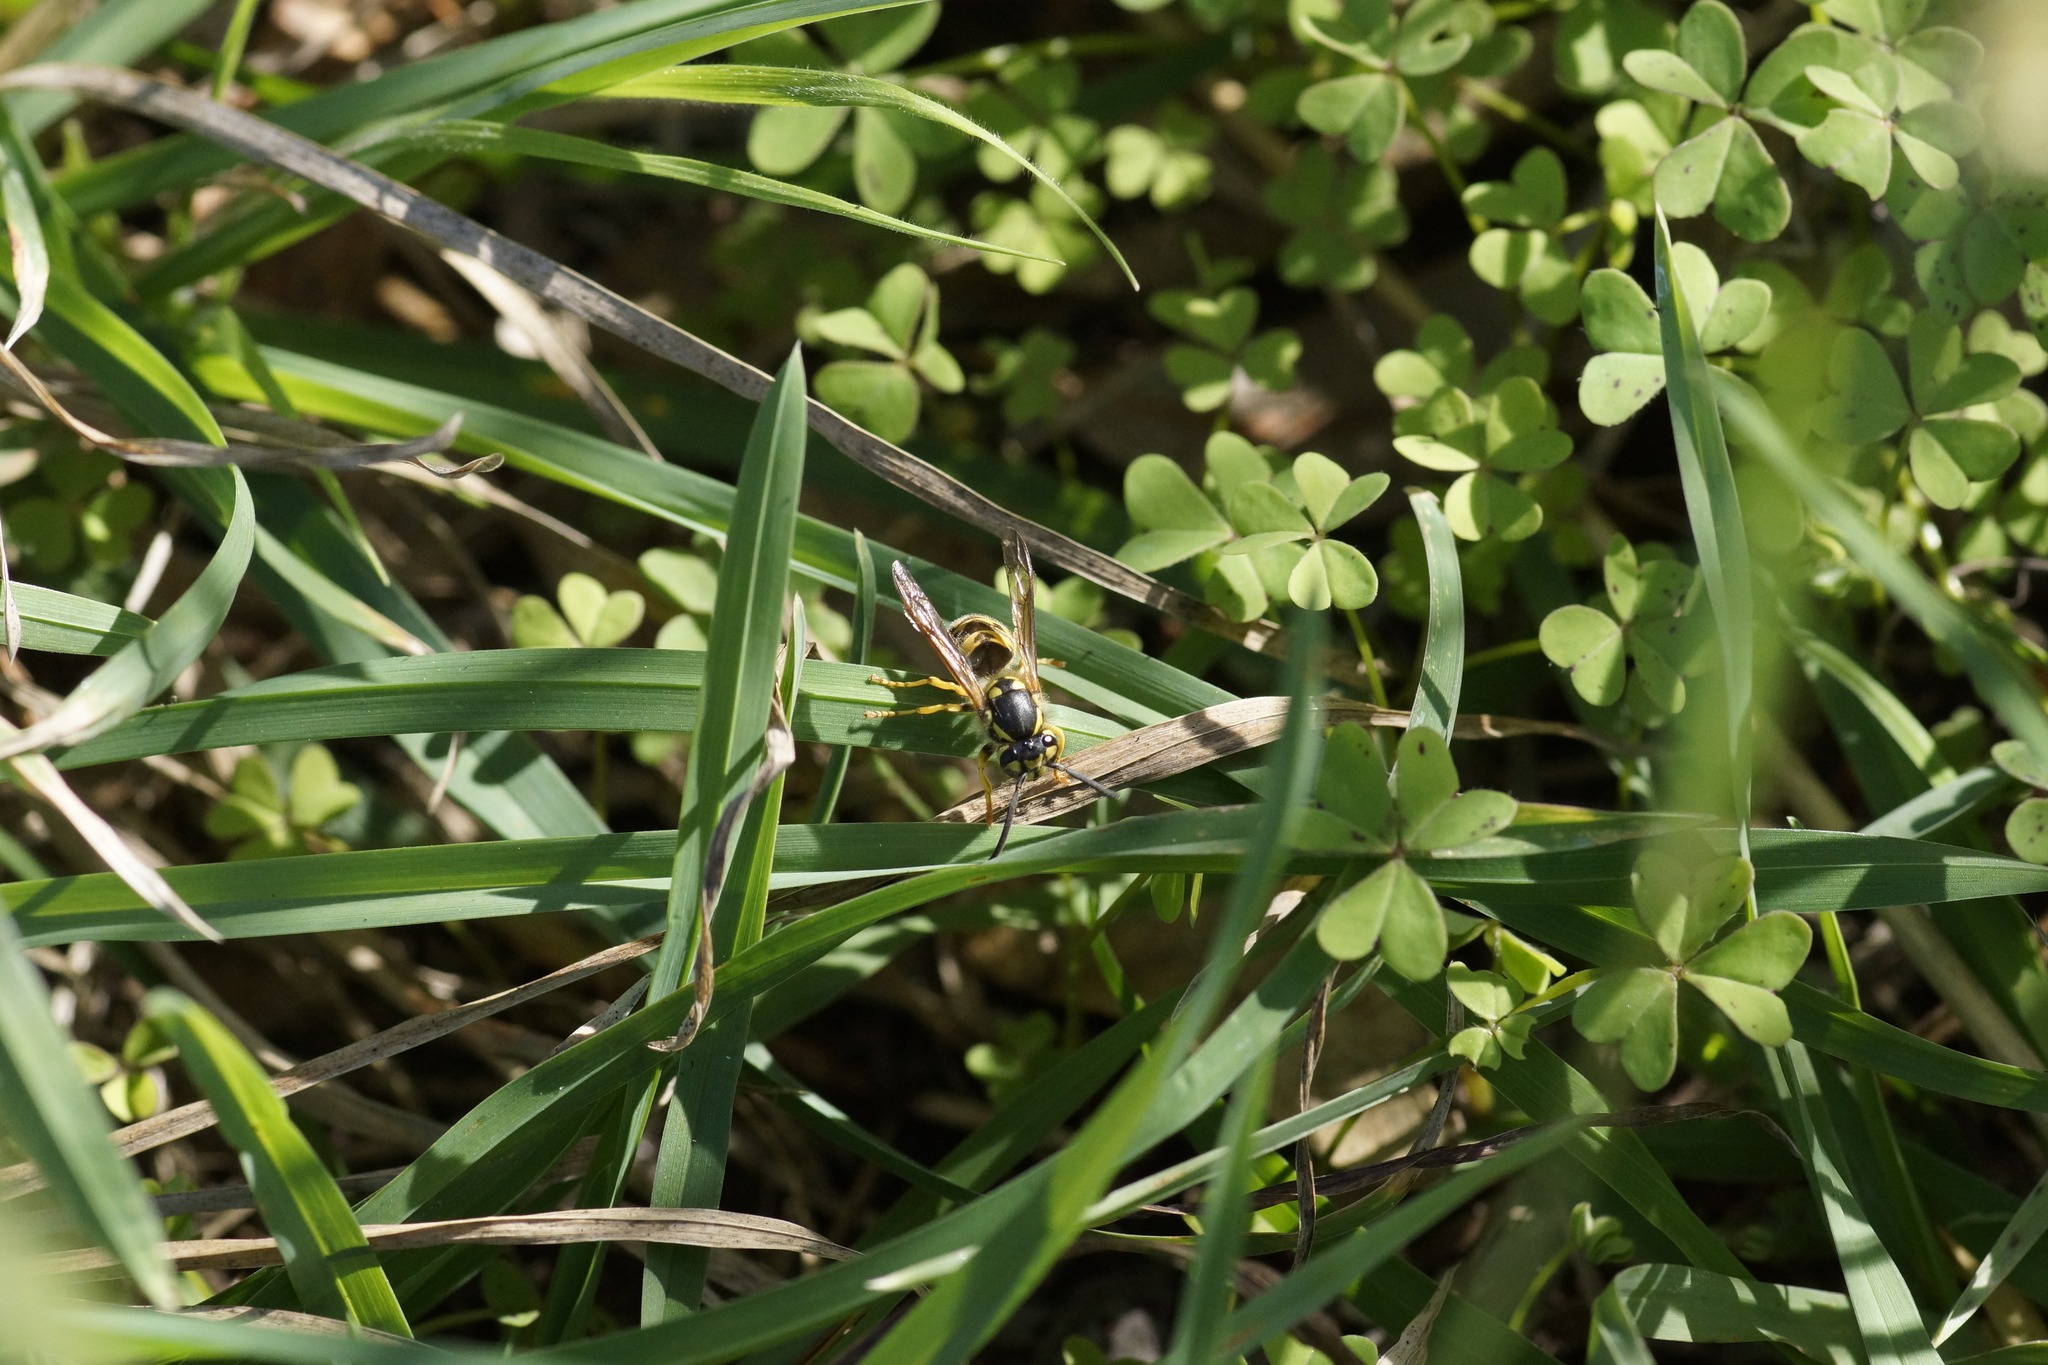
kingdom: Animalia
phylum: Arthropoda
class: Insecta
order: Hymenoptera
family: Vespidae
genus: Vespula
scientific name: Vespula germanica
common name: German wasp
